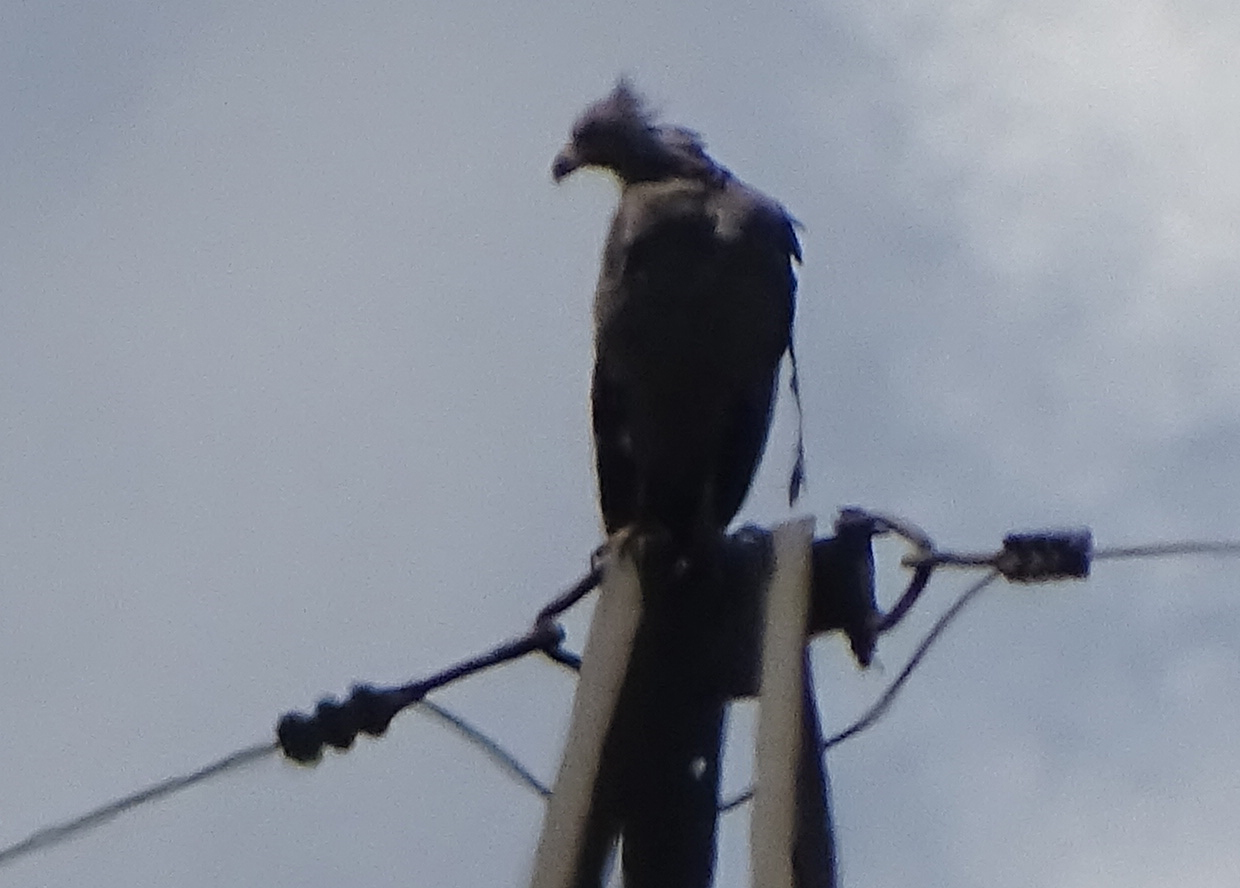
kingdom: Animalia
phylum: Chordata
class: Aves
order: Accipitriformes
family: Accipitridae
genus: Harpyhaliaetus
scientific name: Harpyhaliaetus coronatus
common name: Crowned solitary eagle
